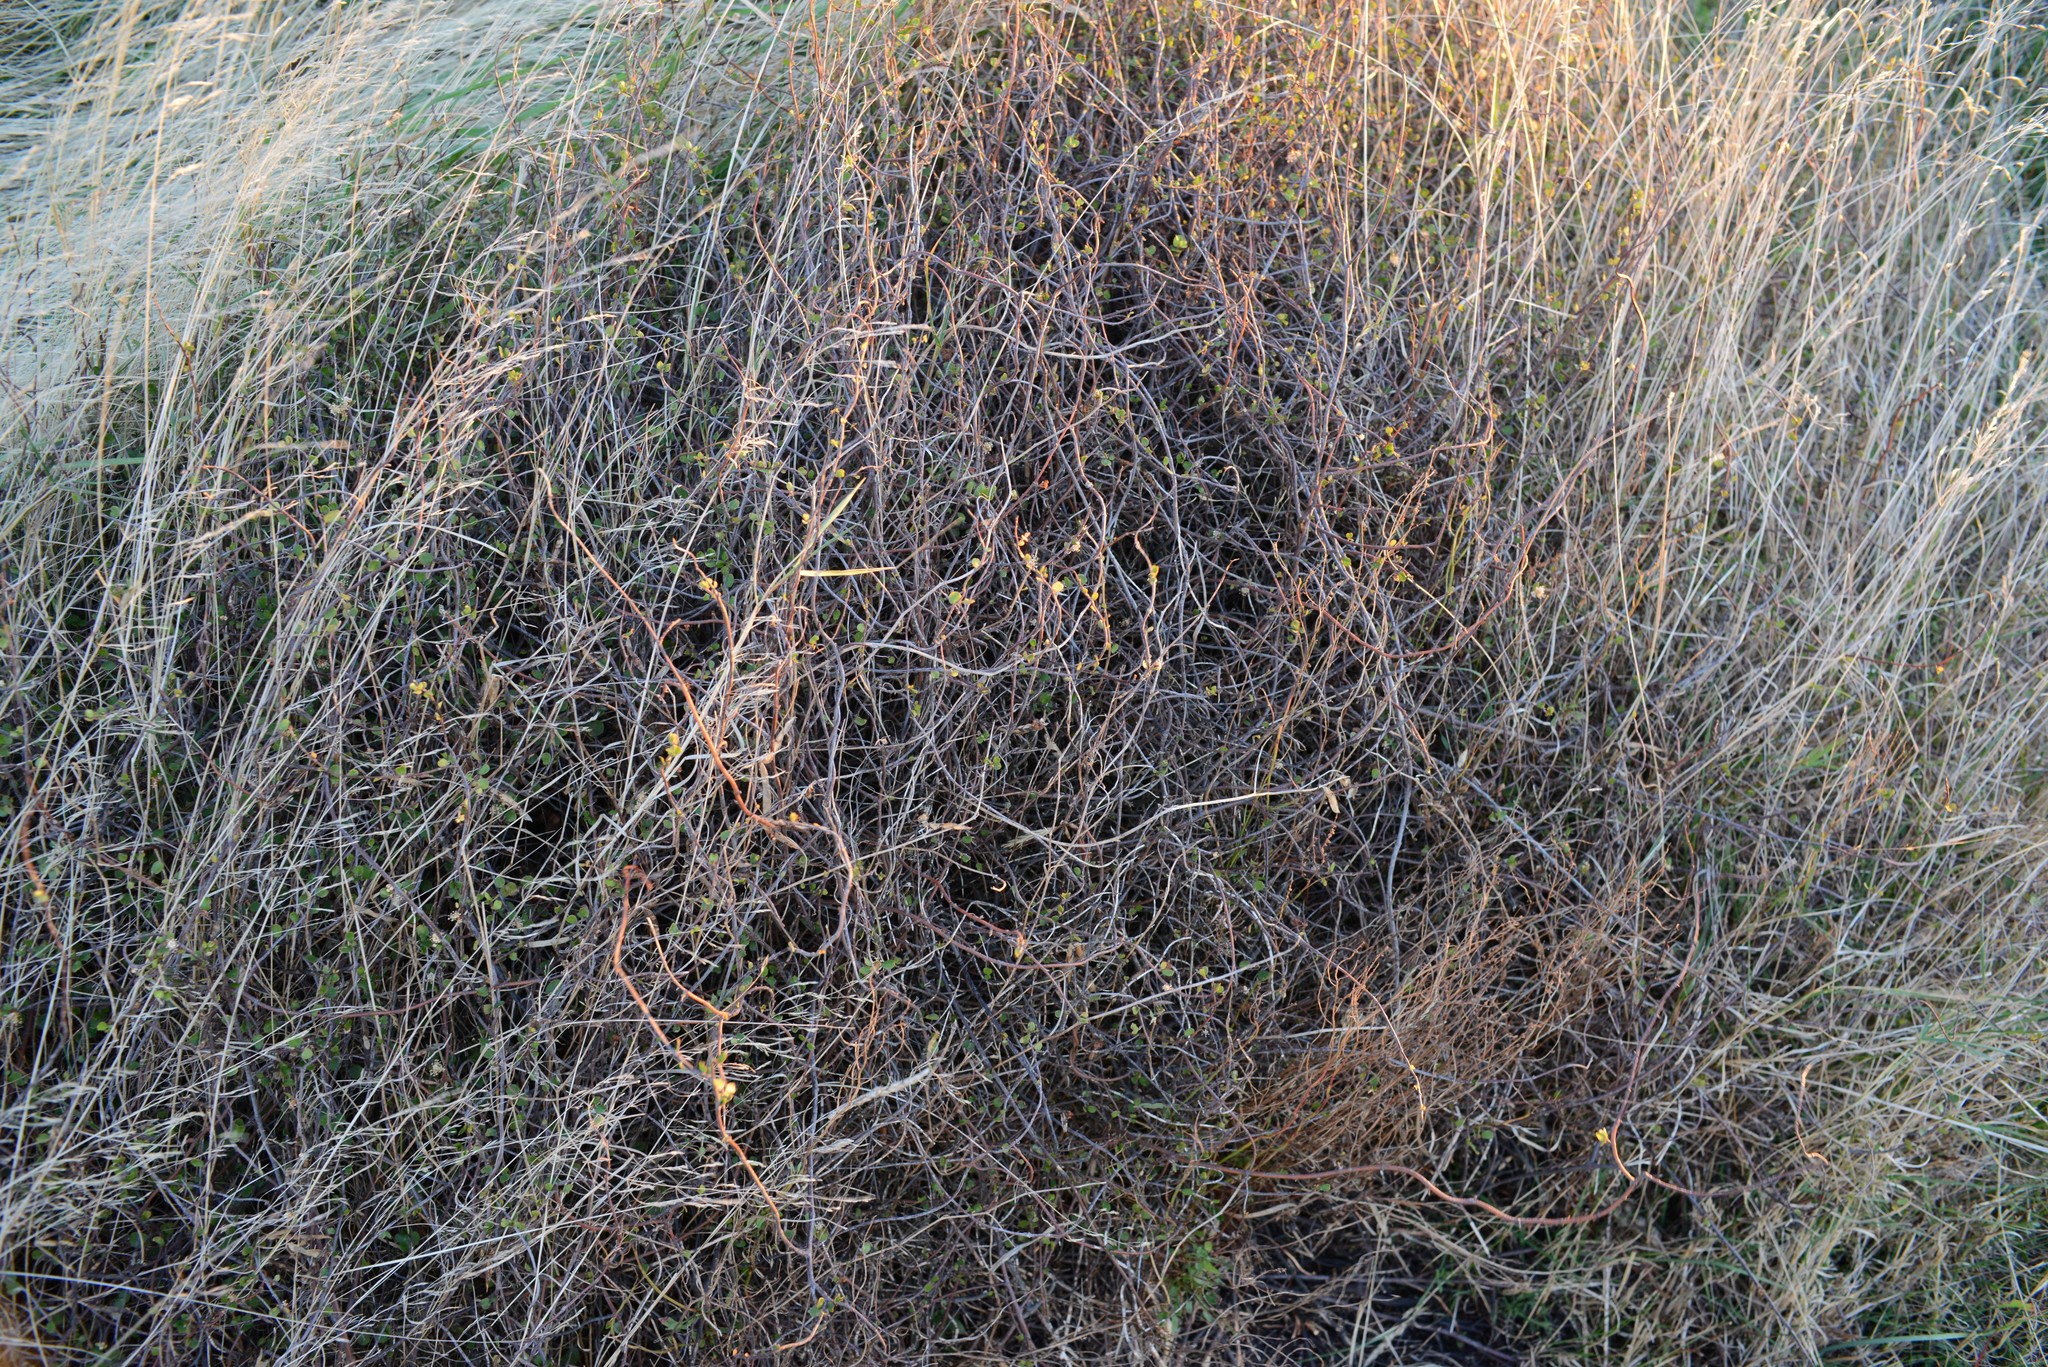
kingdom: Plantae
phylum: Tracheophyta
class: Magnoliopsida
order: Caryophyllales
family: Polygonaceae
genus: Muehlenbeckia
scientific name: Muehlenbeckia complexa
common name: Wireplant
